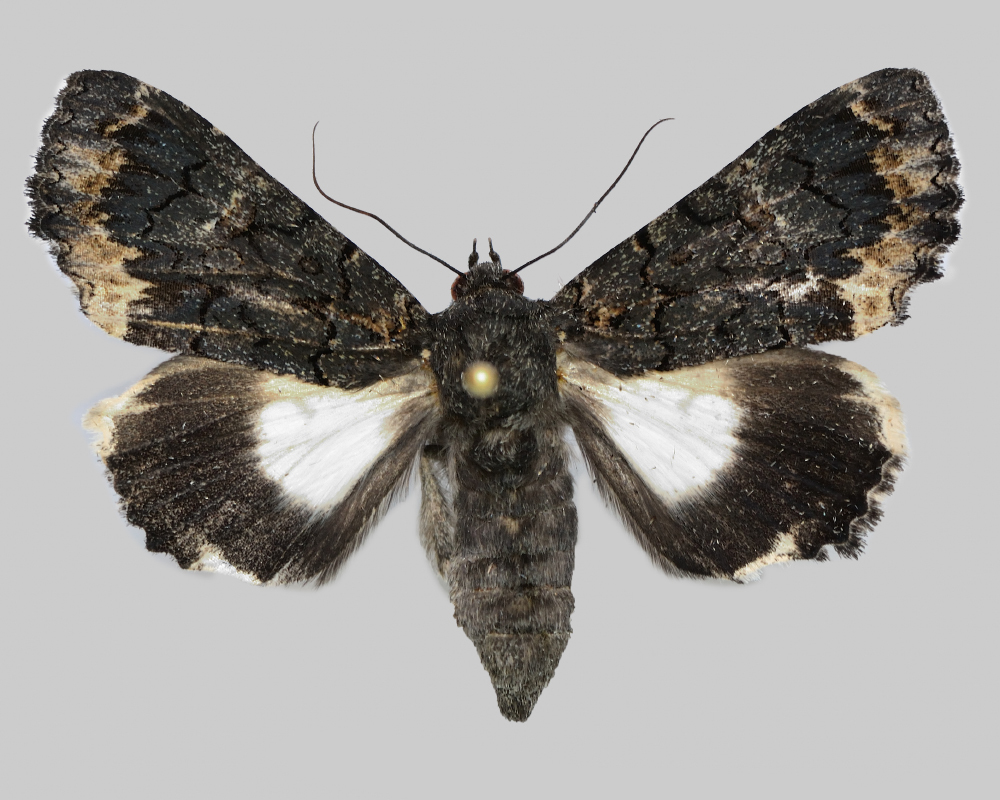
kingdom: Animalia
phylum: Arthropoda
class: Insecta
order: Lepidoptera
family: Erebidae
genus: Catephia
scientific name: Catephia alchymista
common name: Alchymist
